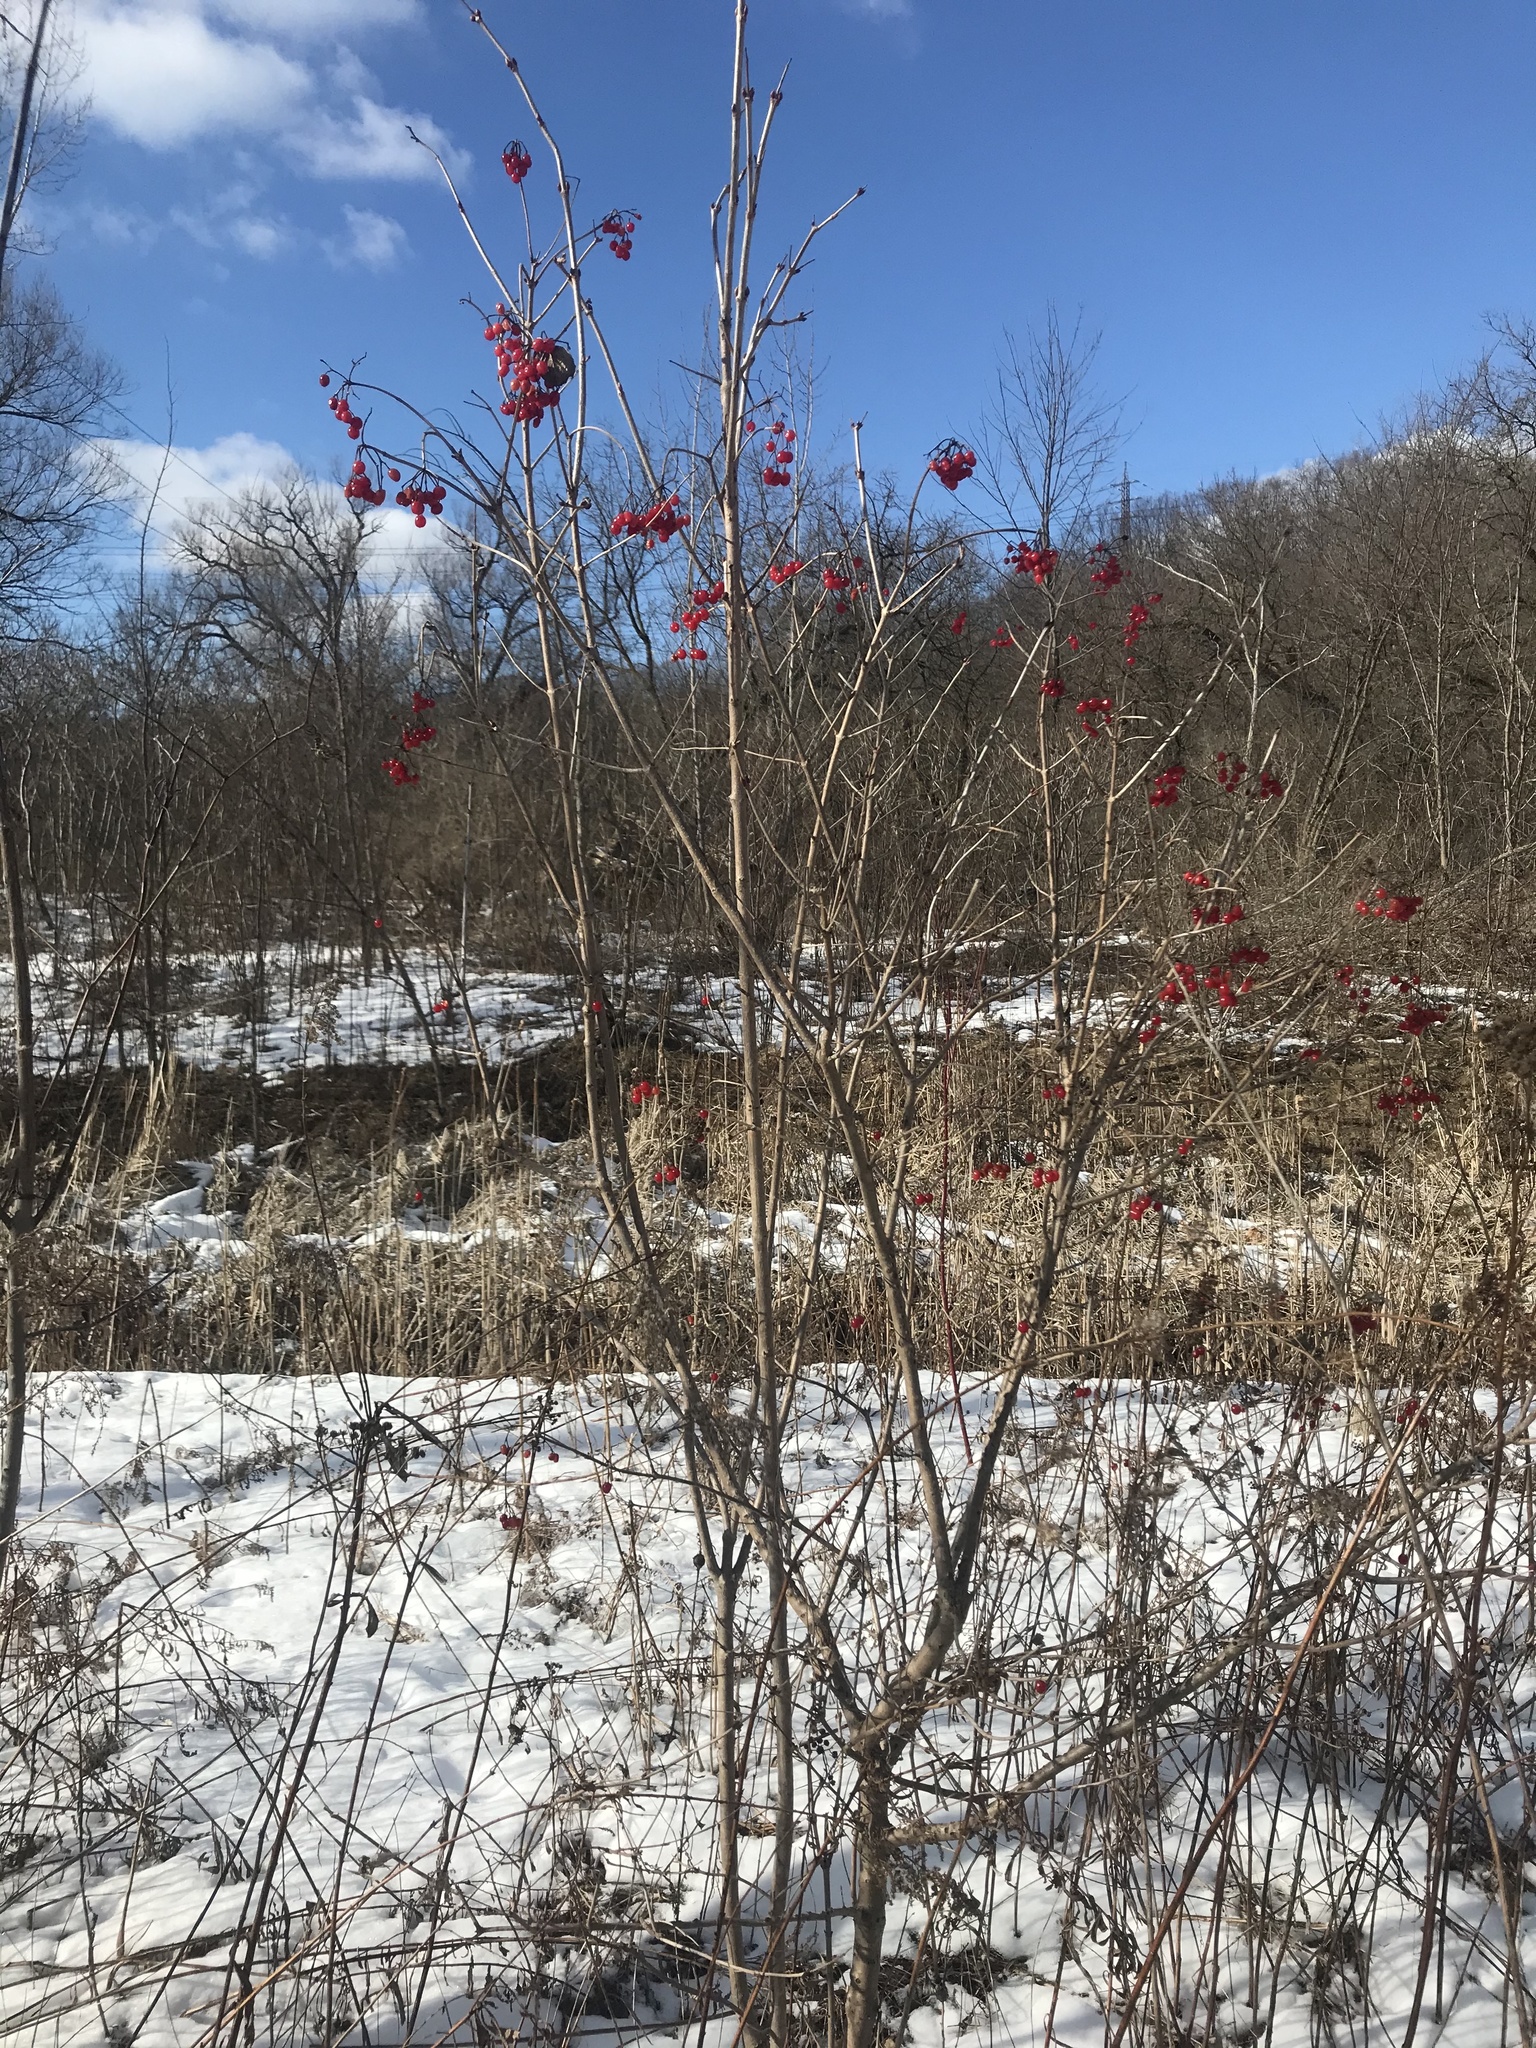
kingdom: Plantae
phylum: Tracheophyta
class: Magnoliopsida
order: Dipsacales
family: Viburnaceae
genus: Viburnum
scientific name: Viburnum opulus
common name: Guelder-rose
